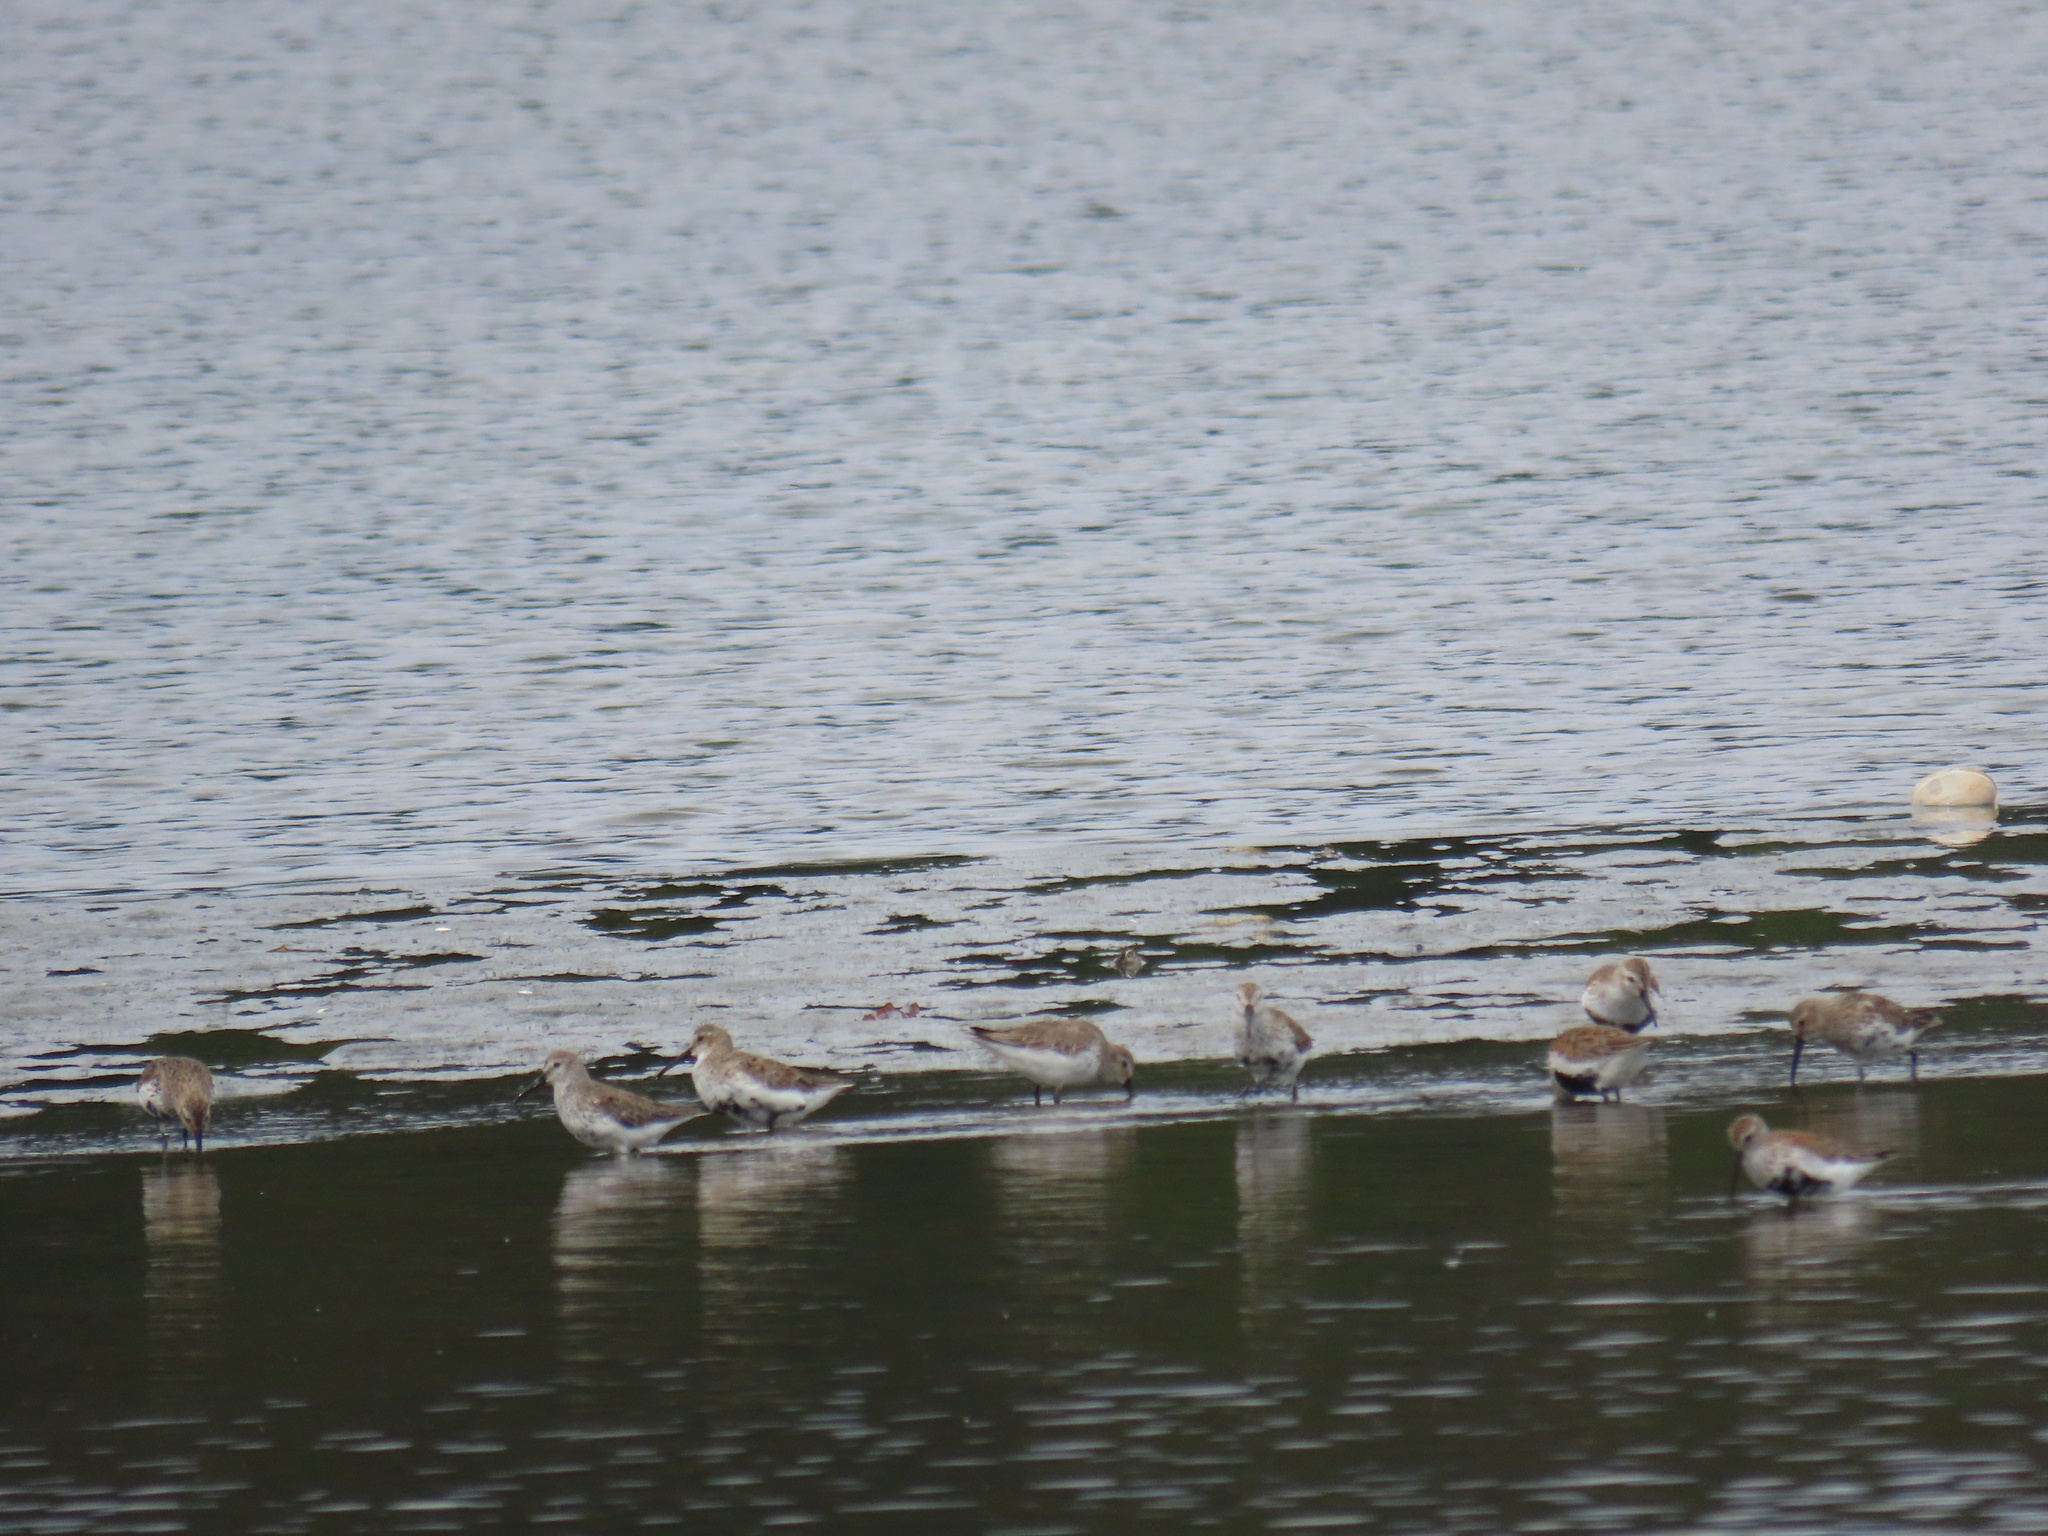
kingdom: Animalia
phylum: Chordata
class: Aves
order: Charadriiformes
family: Scolopacidae
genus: Calidris
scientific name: Calidris alpina
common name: Dunlin
